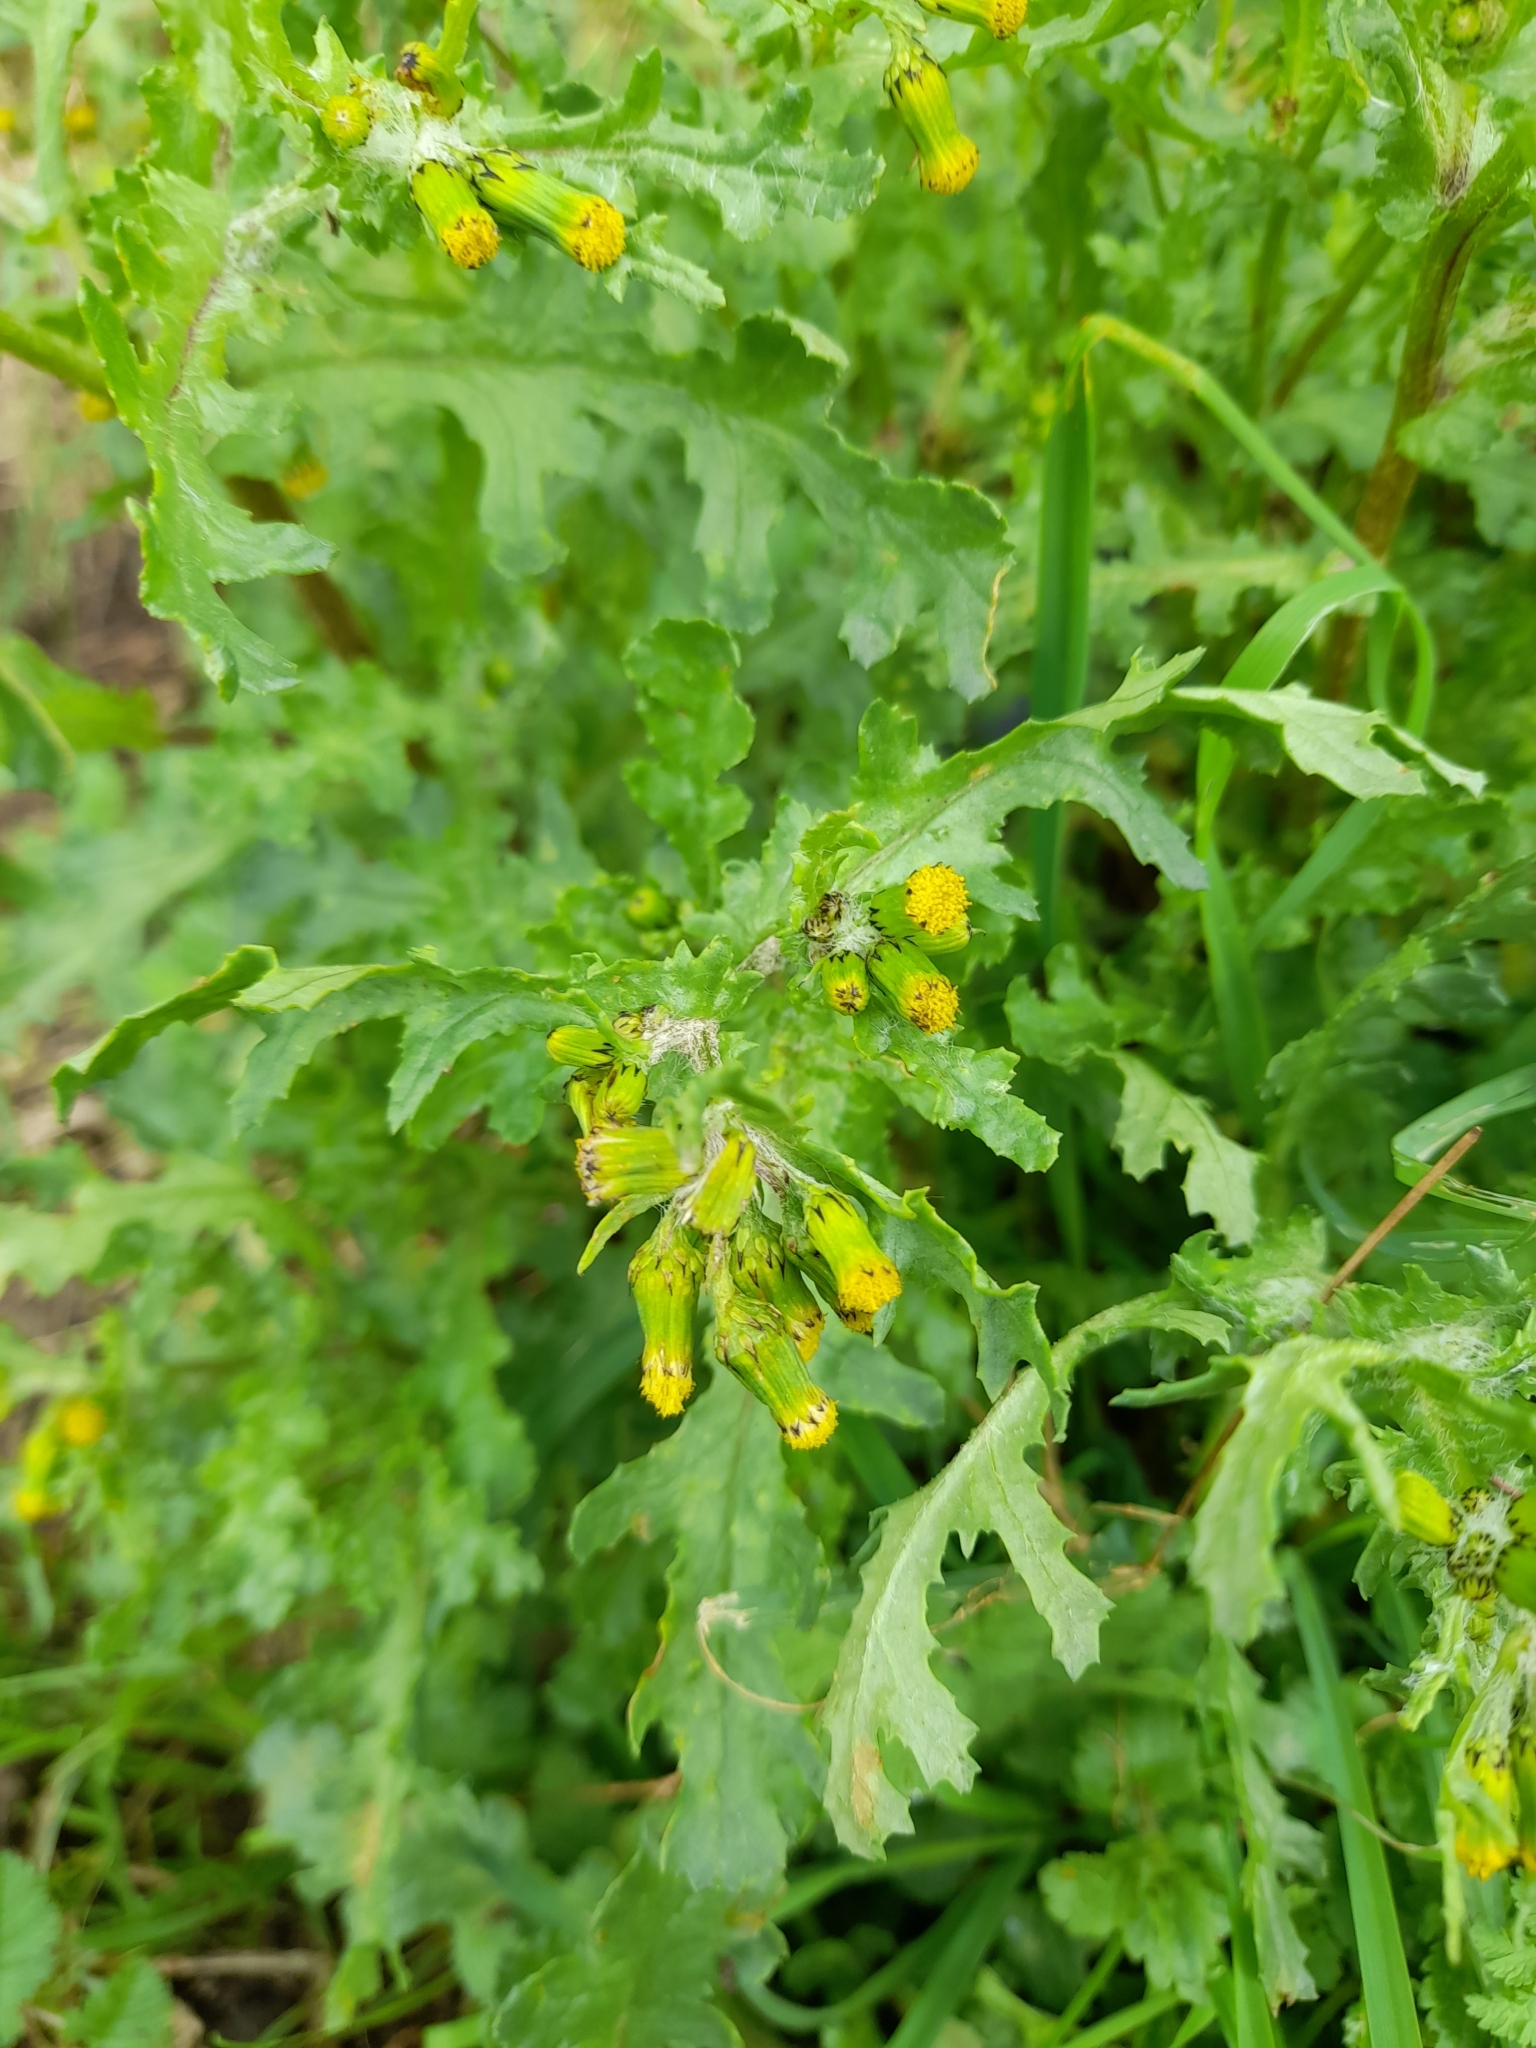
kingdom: Plantae
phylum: Tracheophyta
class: Magnoliopsida
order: Asterales
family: Asteraceae
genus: Senecio
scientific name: Senecio vulgaris
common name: Old-man-in-the-spring
